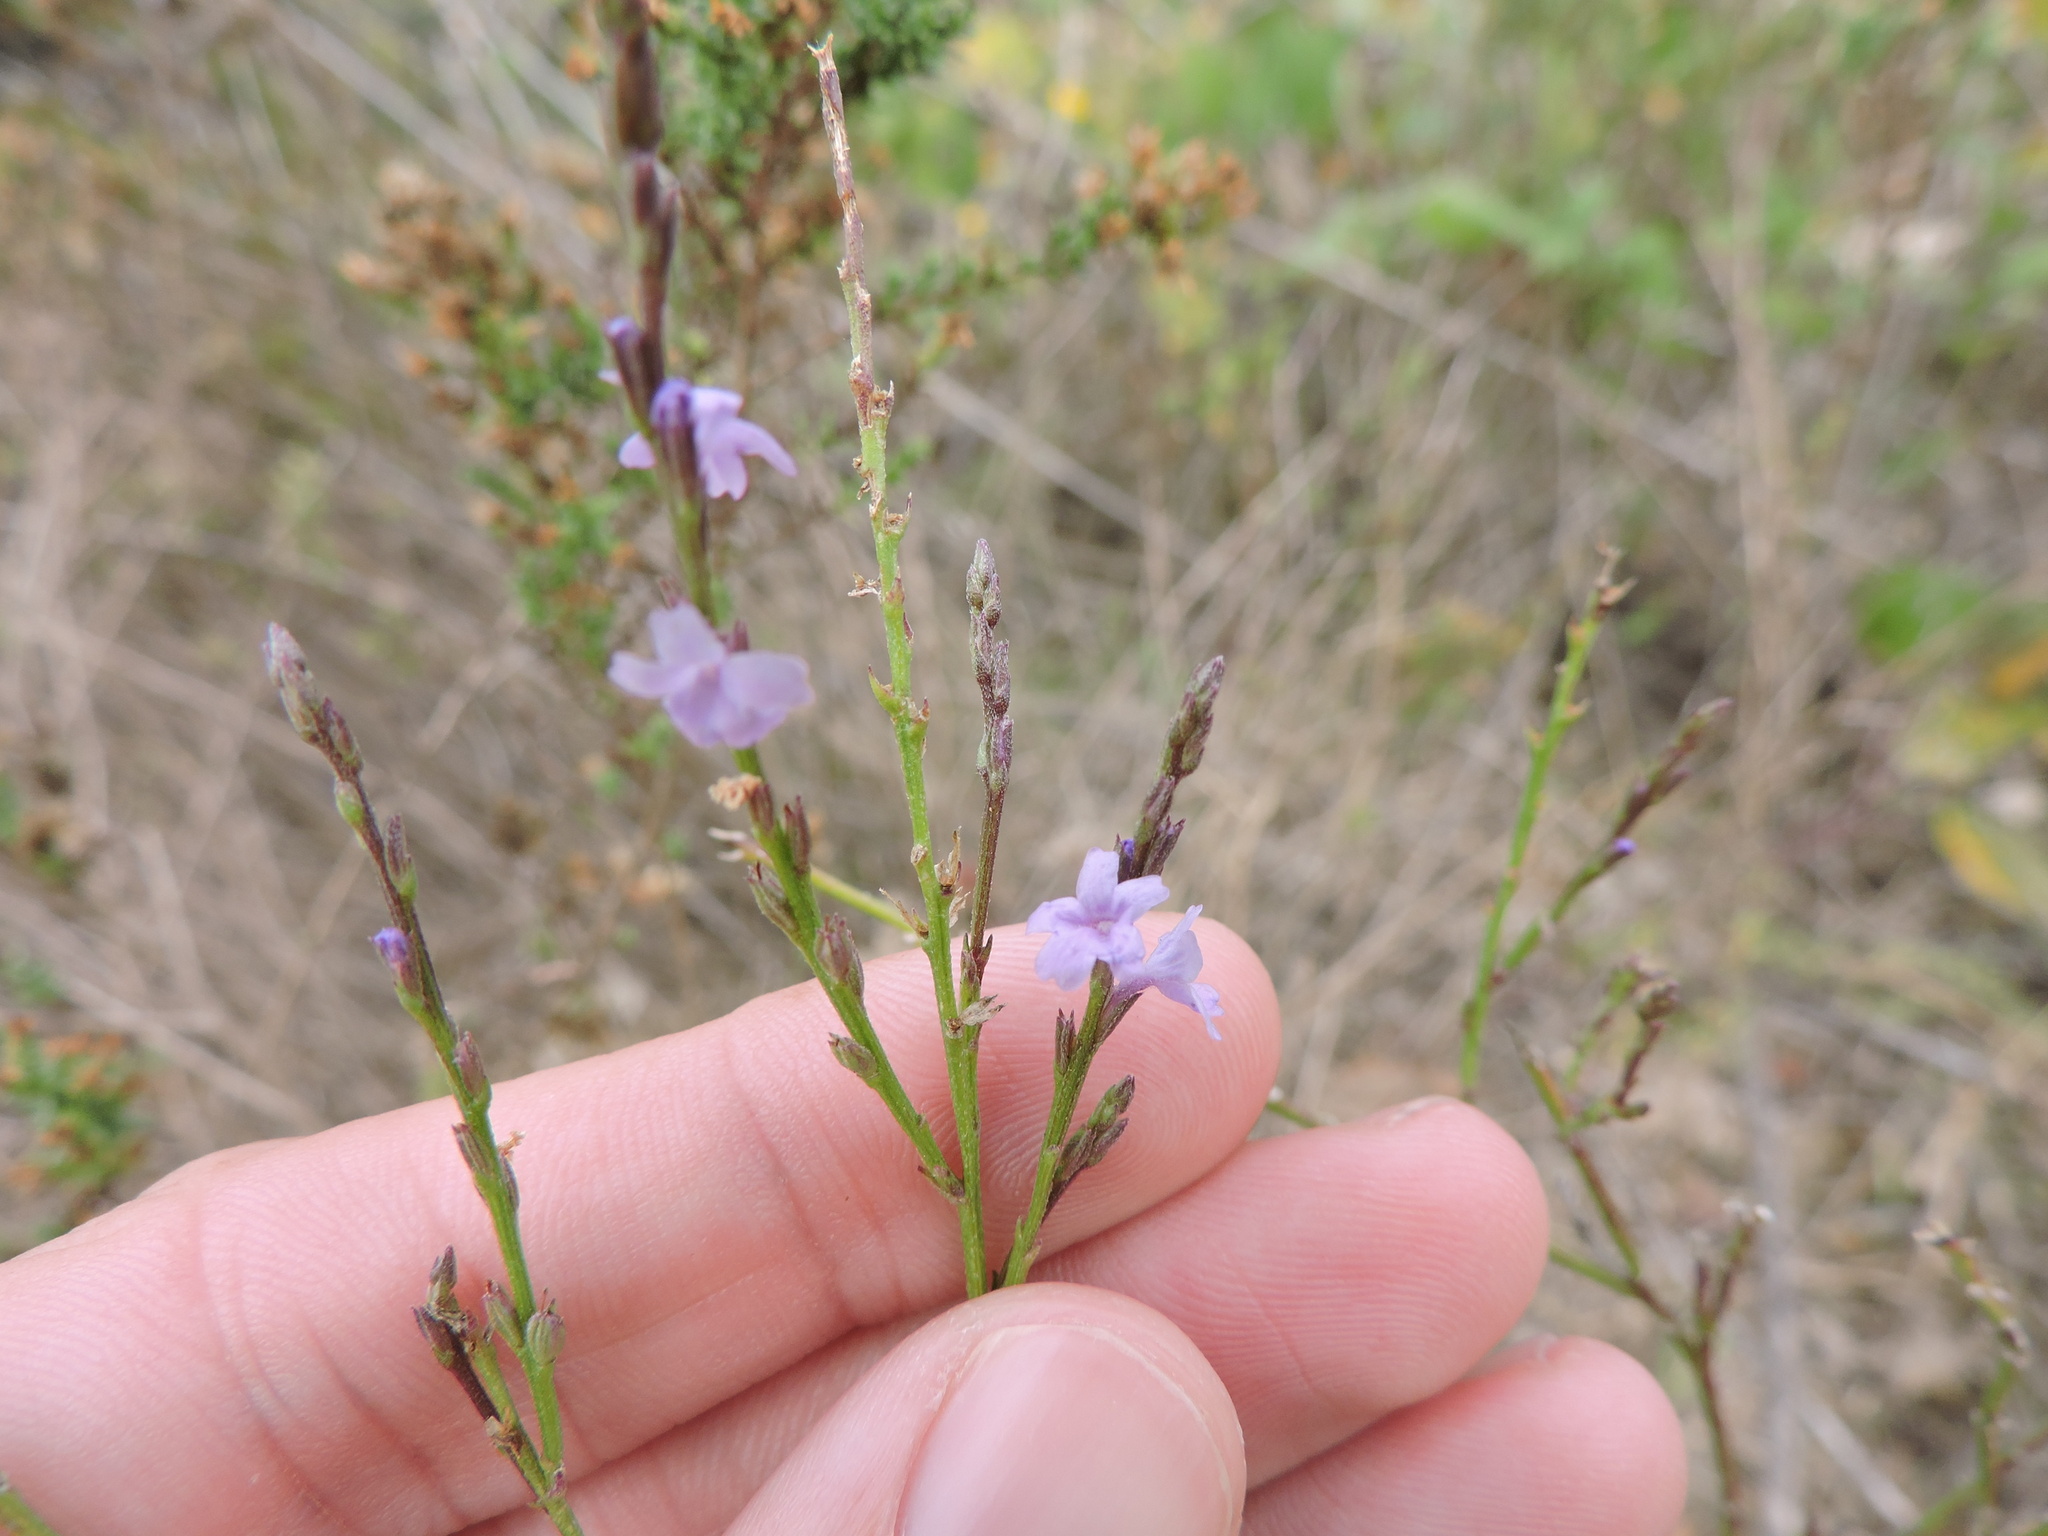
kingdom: Plantae
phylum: Tracheophyta
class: Magnoliopsida
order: Lamiales
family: Verbenaceae
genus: Verbena
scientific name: Verbena halei
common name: Texas vervain
